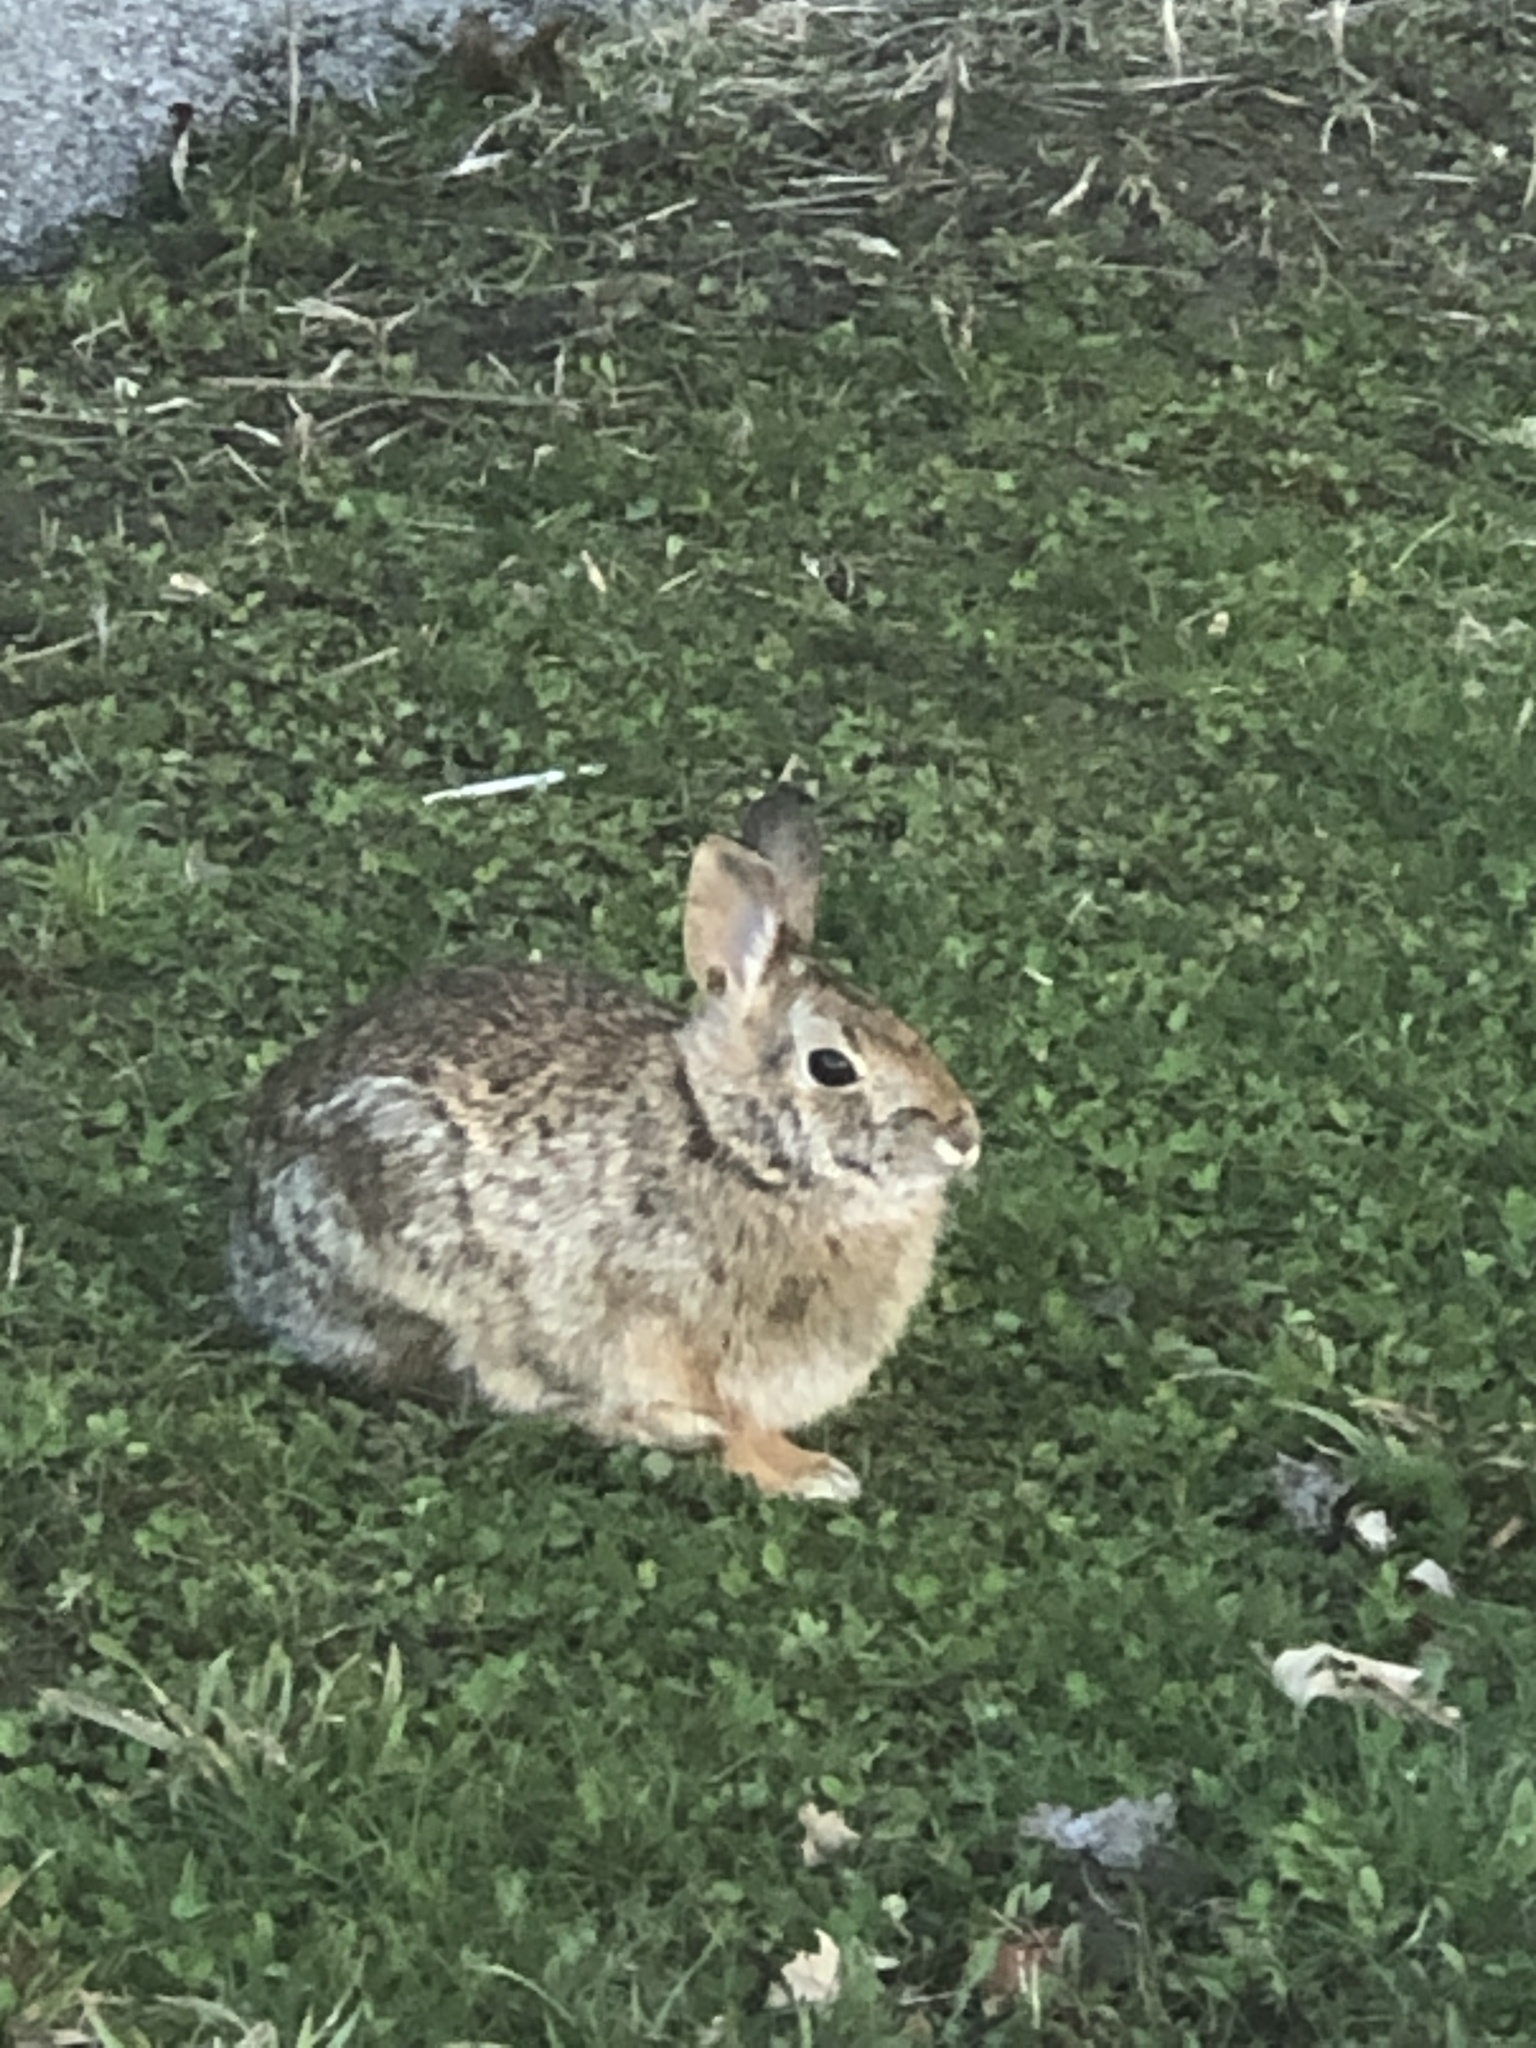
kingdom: Animalia
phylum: Chordata
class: Mammalia
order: Lagomorpha
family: Leporidae
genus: Sylvilagus
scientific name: Sylvilagus floridanus
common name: Eastern cottontail
